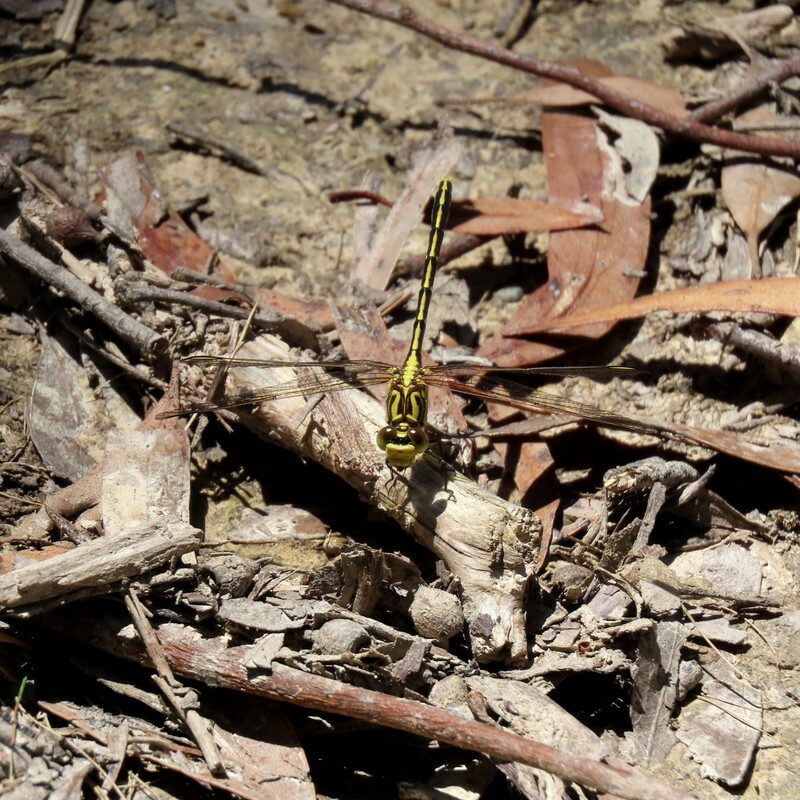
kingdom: Animalia
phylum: Arthropoda
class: Insecta
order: Odonata
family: Gomphidae
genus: Austrogomphus
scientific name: Austrogomphus guerini
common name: Yellow-striped hunter
